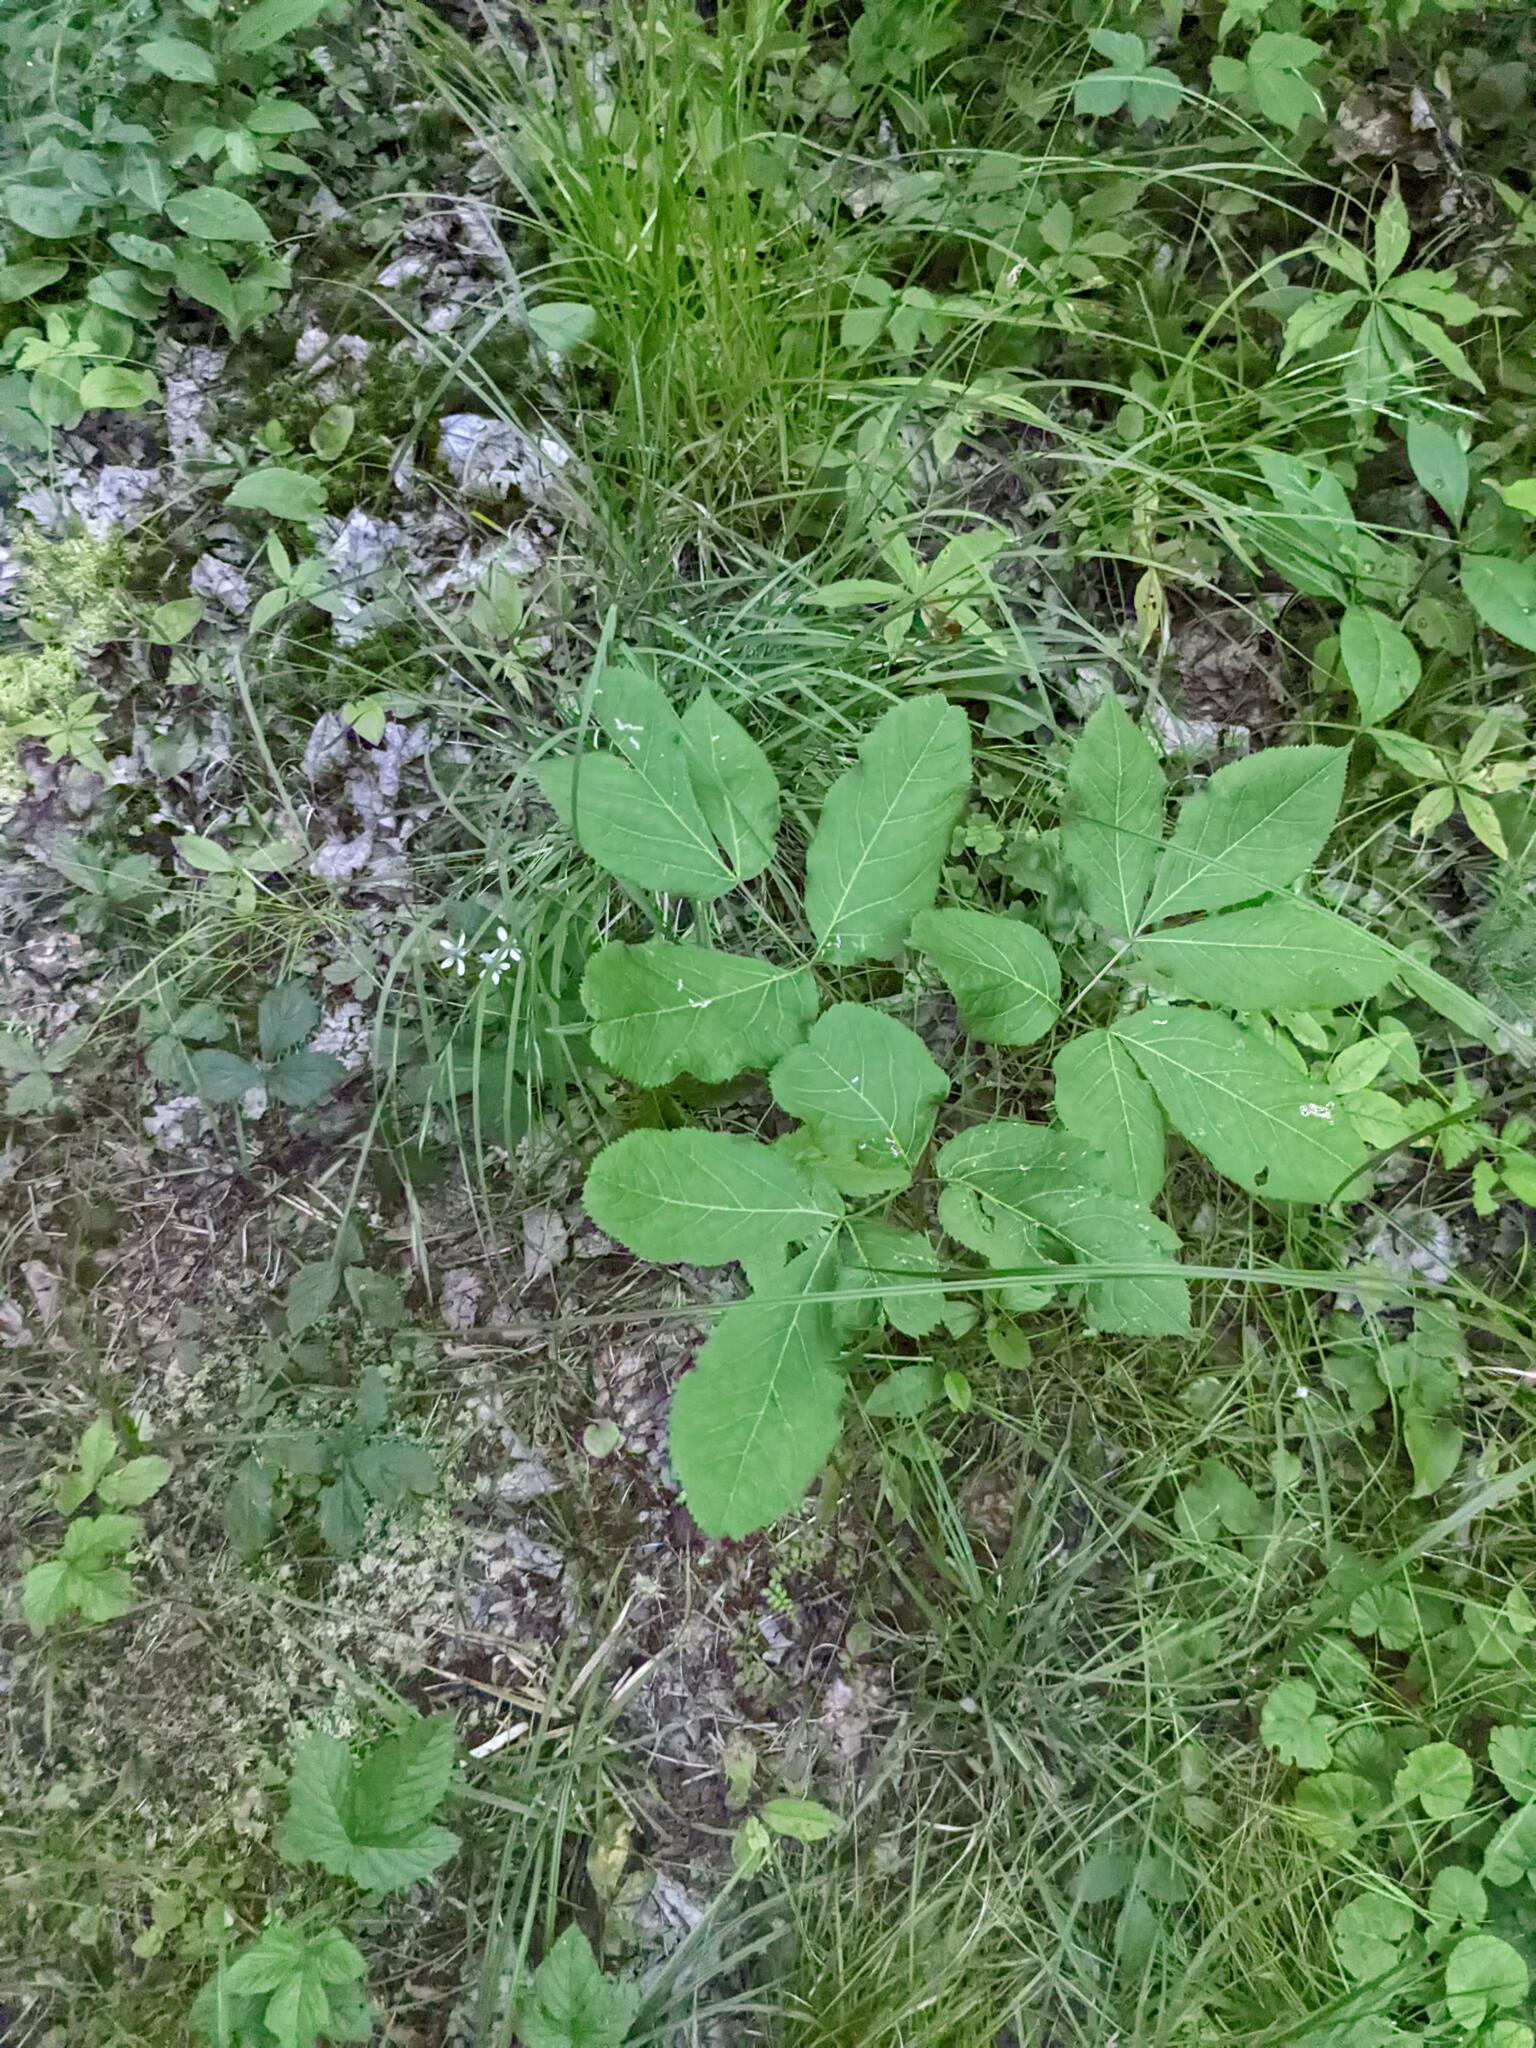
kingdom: Plantae
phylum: Tracheophyta
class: Magnoliopsida
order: Apiales
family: Araliaceae
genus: Aralia
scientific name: Aralia nudicaulis
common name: Wild sarsaparilla
